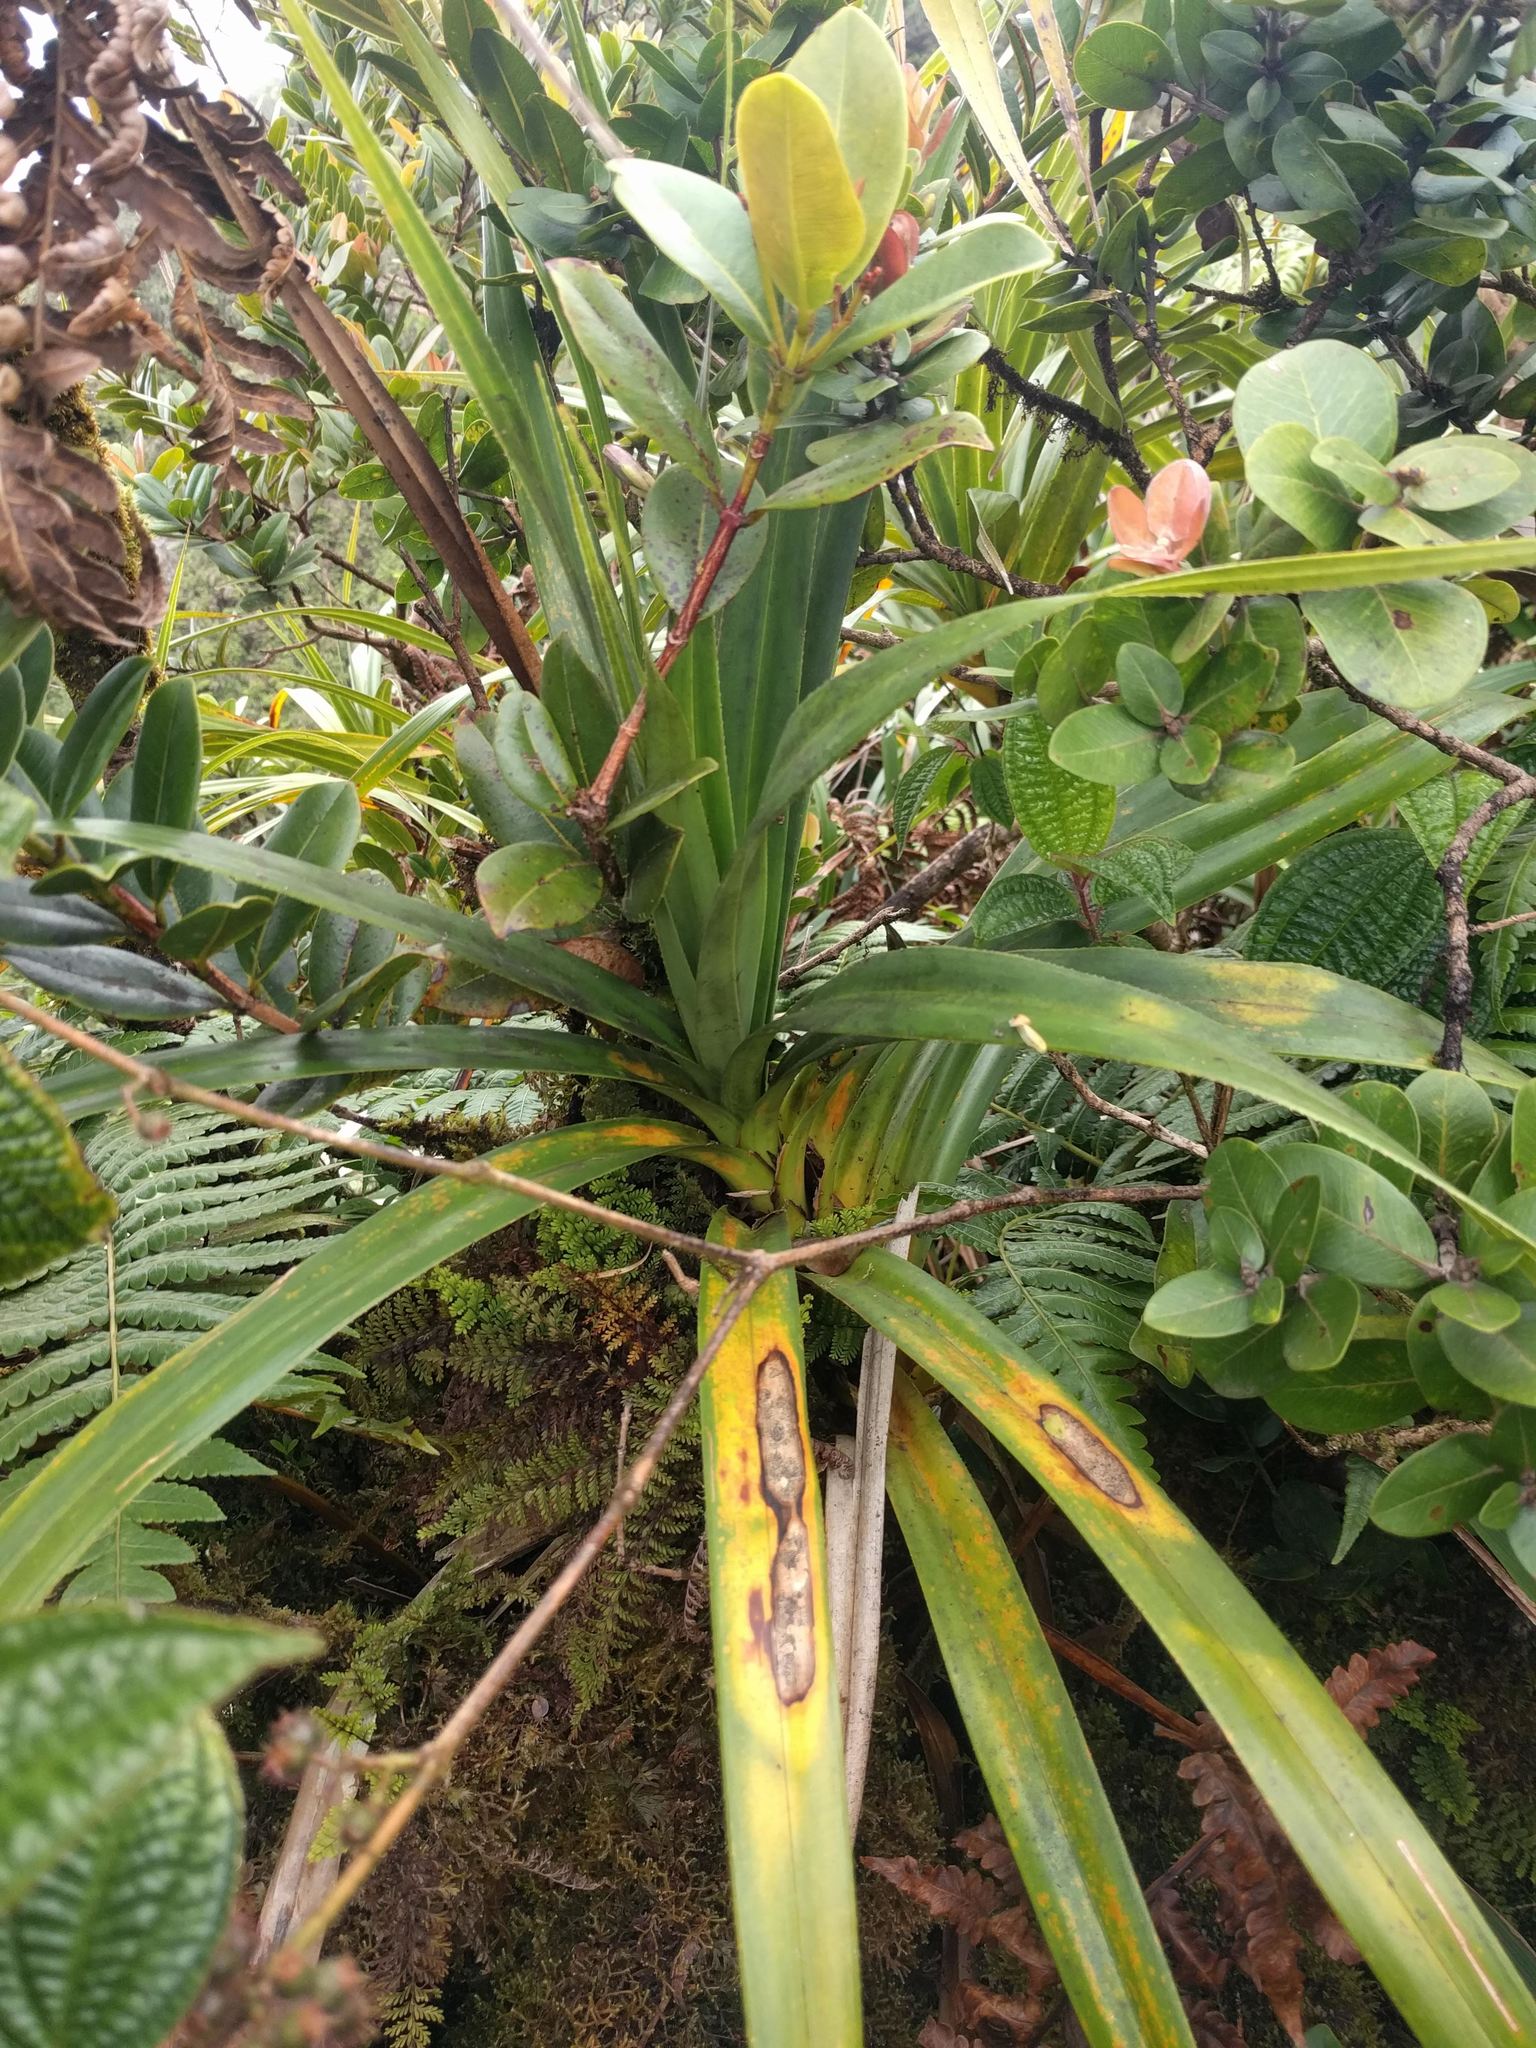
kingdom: Plantae
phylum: Tracheophyta
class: Magnoliopsida
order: Myrtales
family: Myrtaceae
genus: Syzygium
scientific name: Syzygium sandwicense
